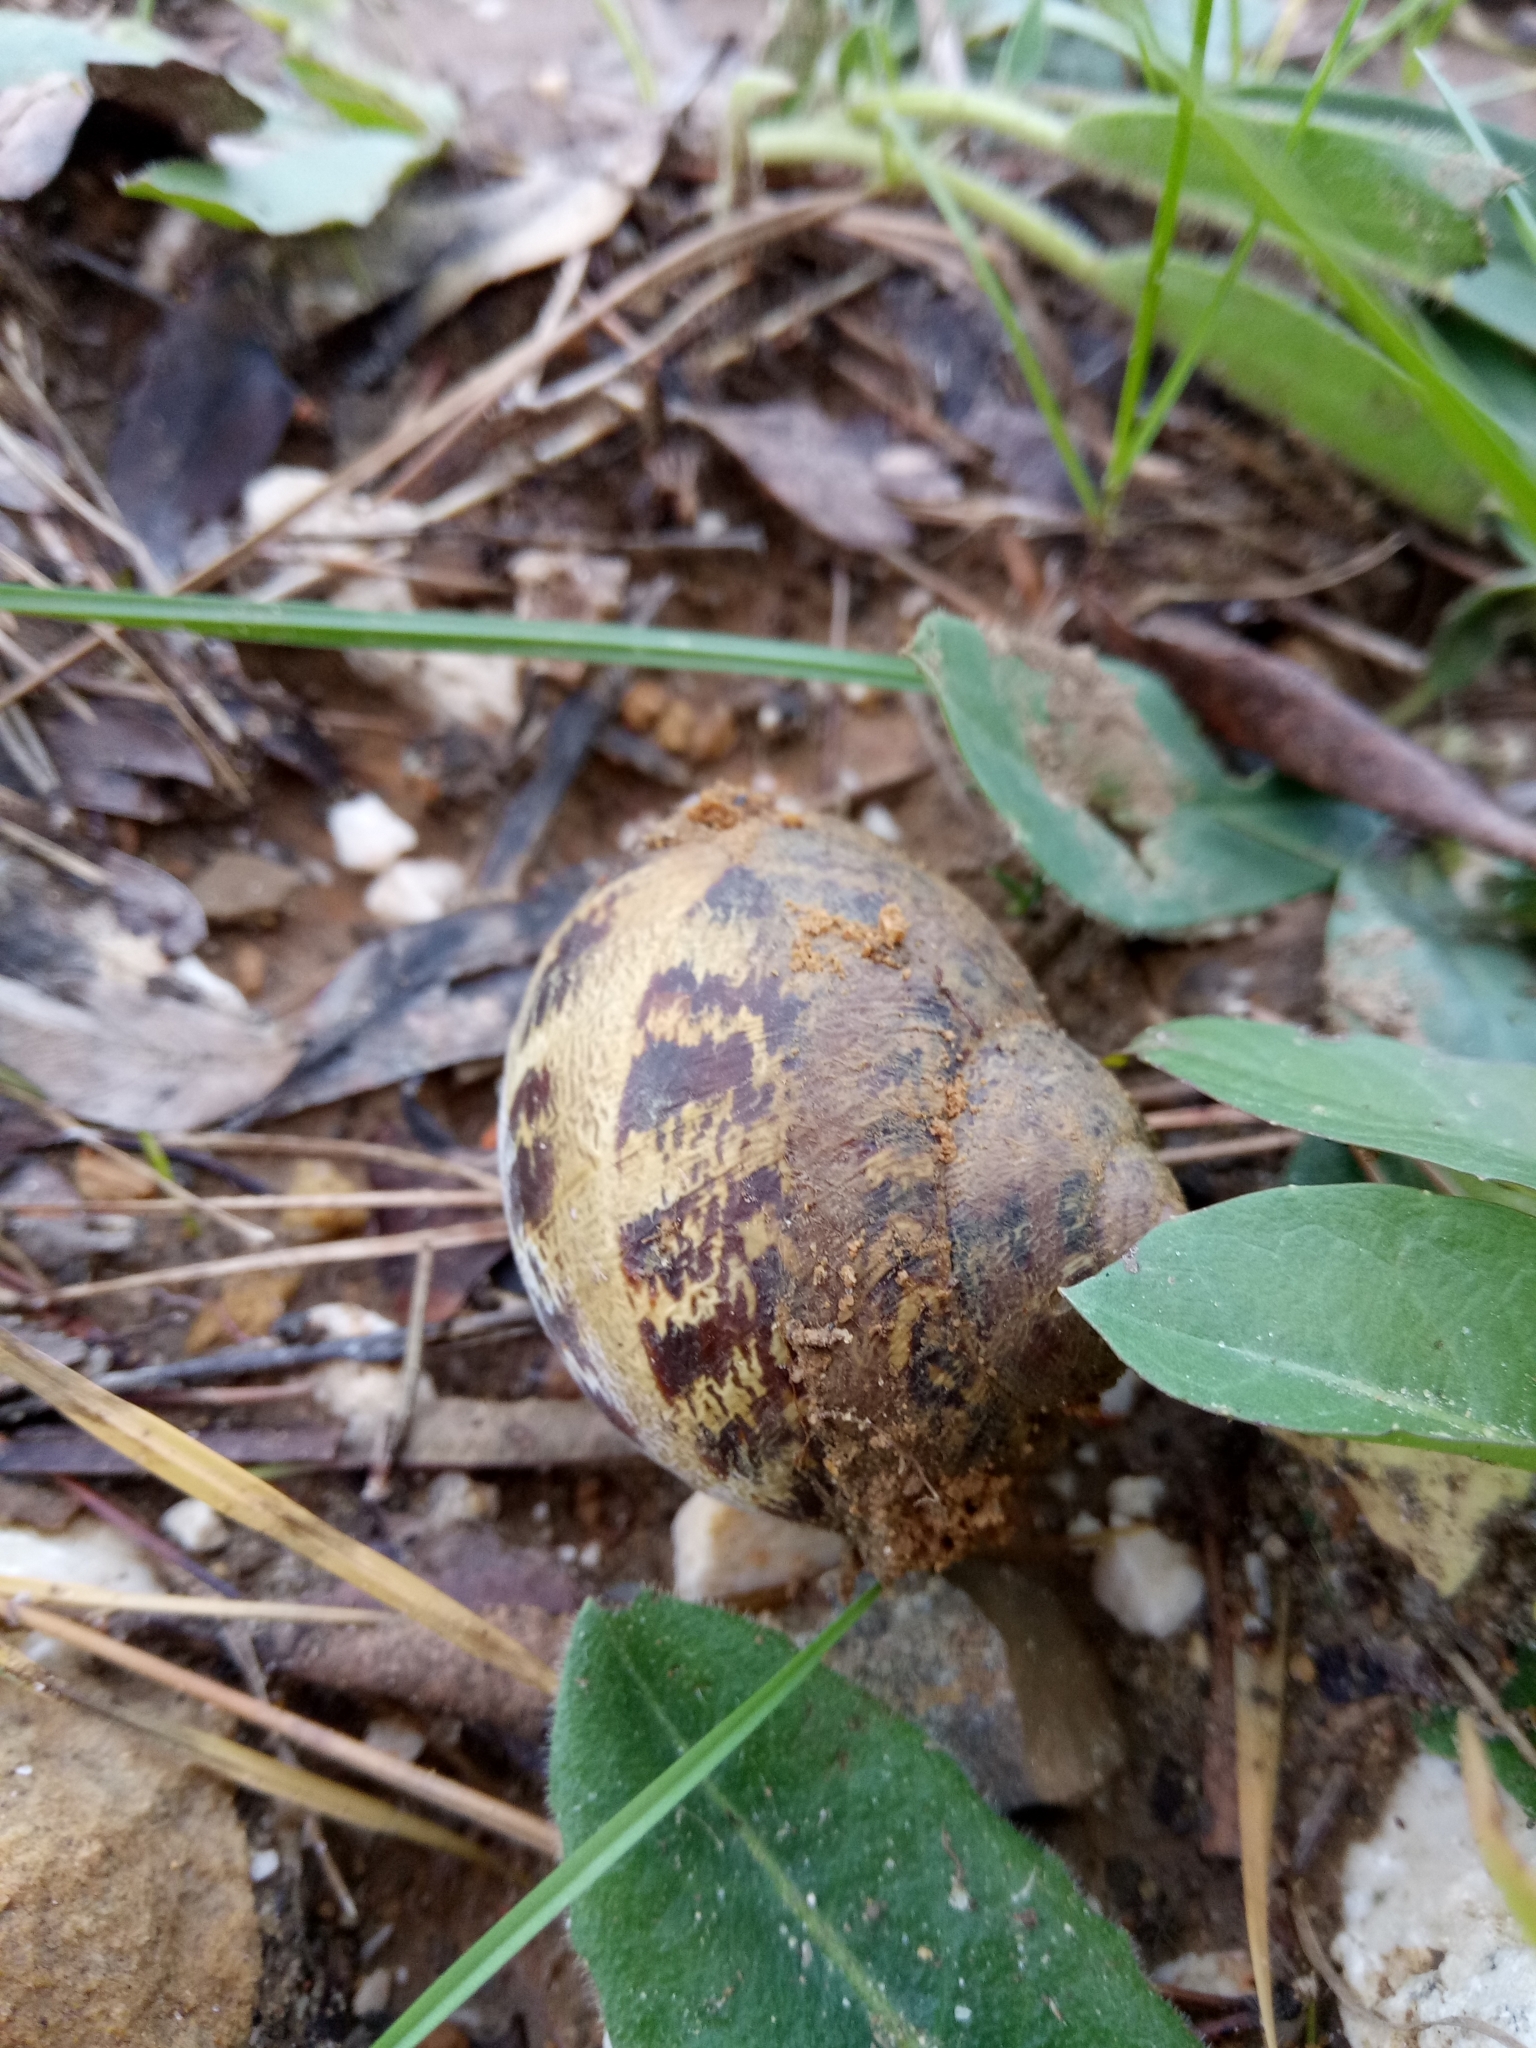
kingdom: Animalia
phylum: Mollusca
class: Gastropoda
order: Stylommatophora
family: Helicidae
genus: Cornu
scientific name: Cornu aspersum
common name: Brown garden snail
